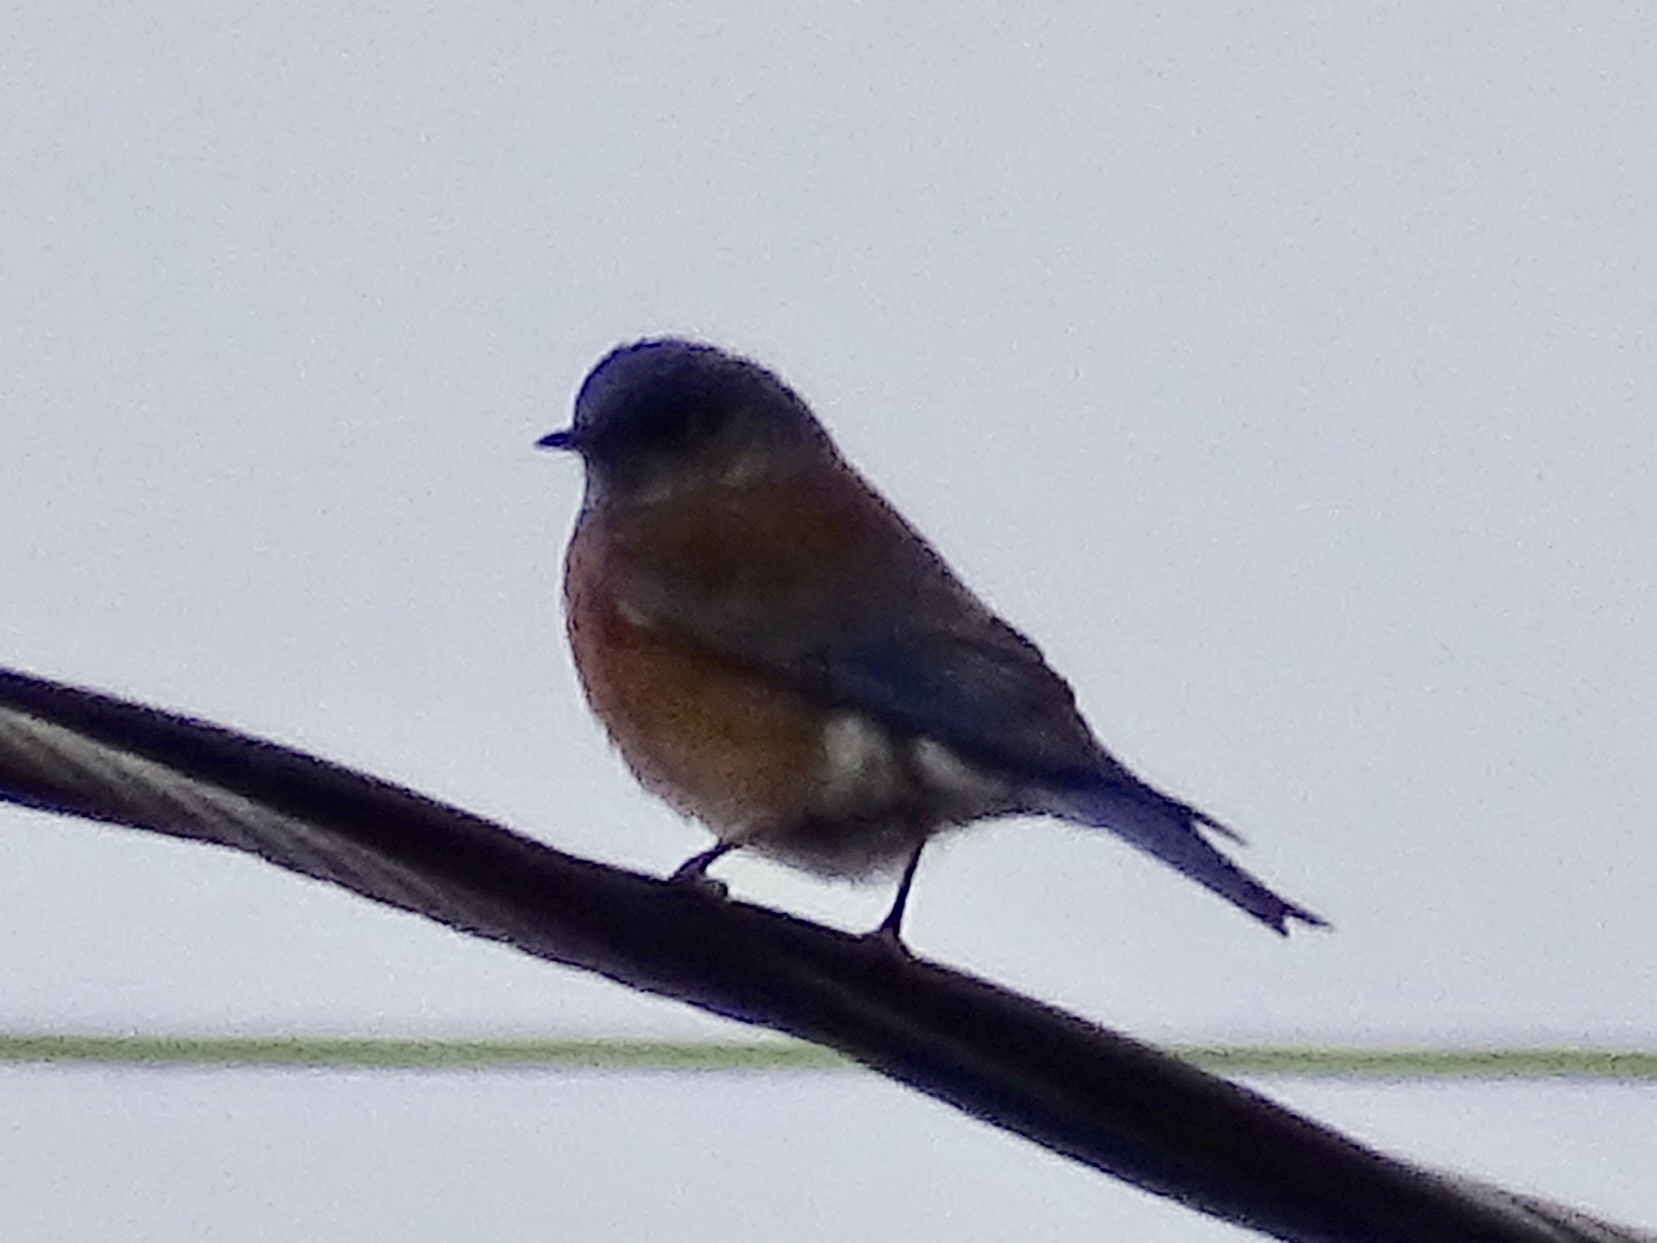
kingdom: Animalia
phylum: Chordata
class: Aves
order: Passeriformes
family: Turdidae
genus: Sialia
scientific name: Sialia mexicana
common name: Western bluebird
